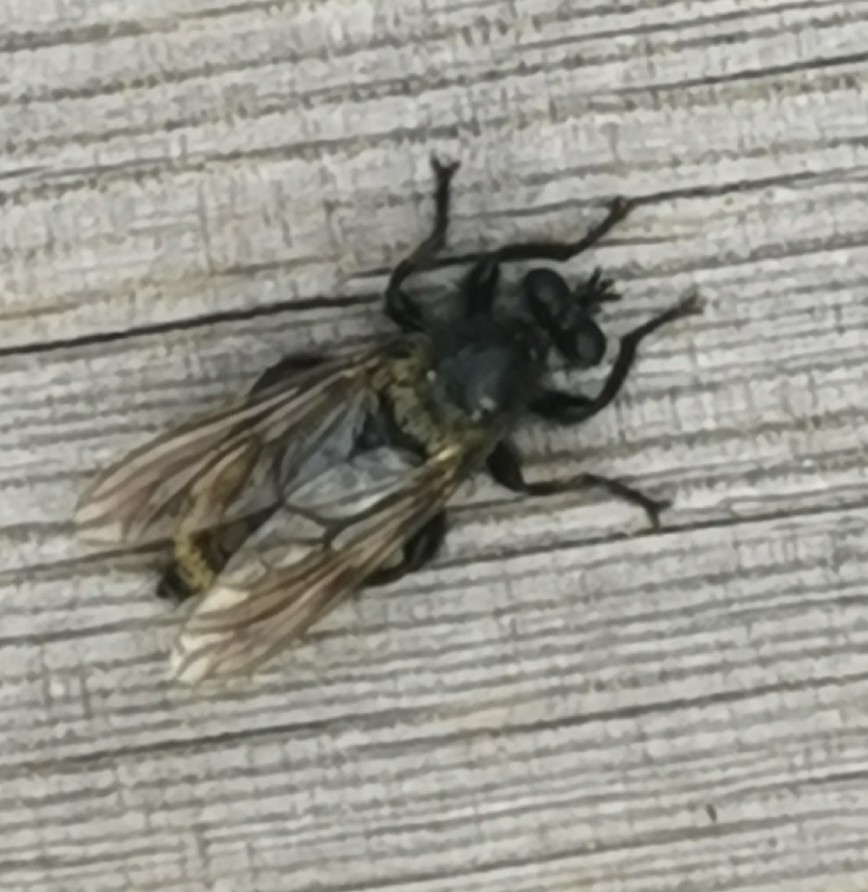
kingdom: Animalia
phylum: Arthropoda
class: Insecta
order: Diptera
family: Asilidae
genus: Laphria
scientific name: Laphria flava
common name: Bumblebee robberfly
